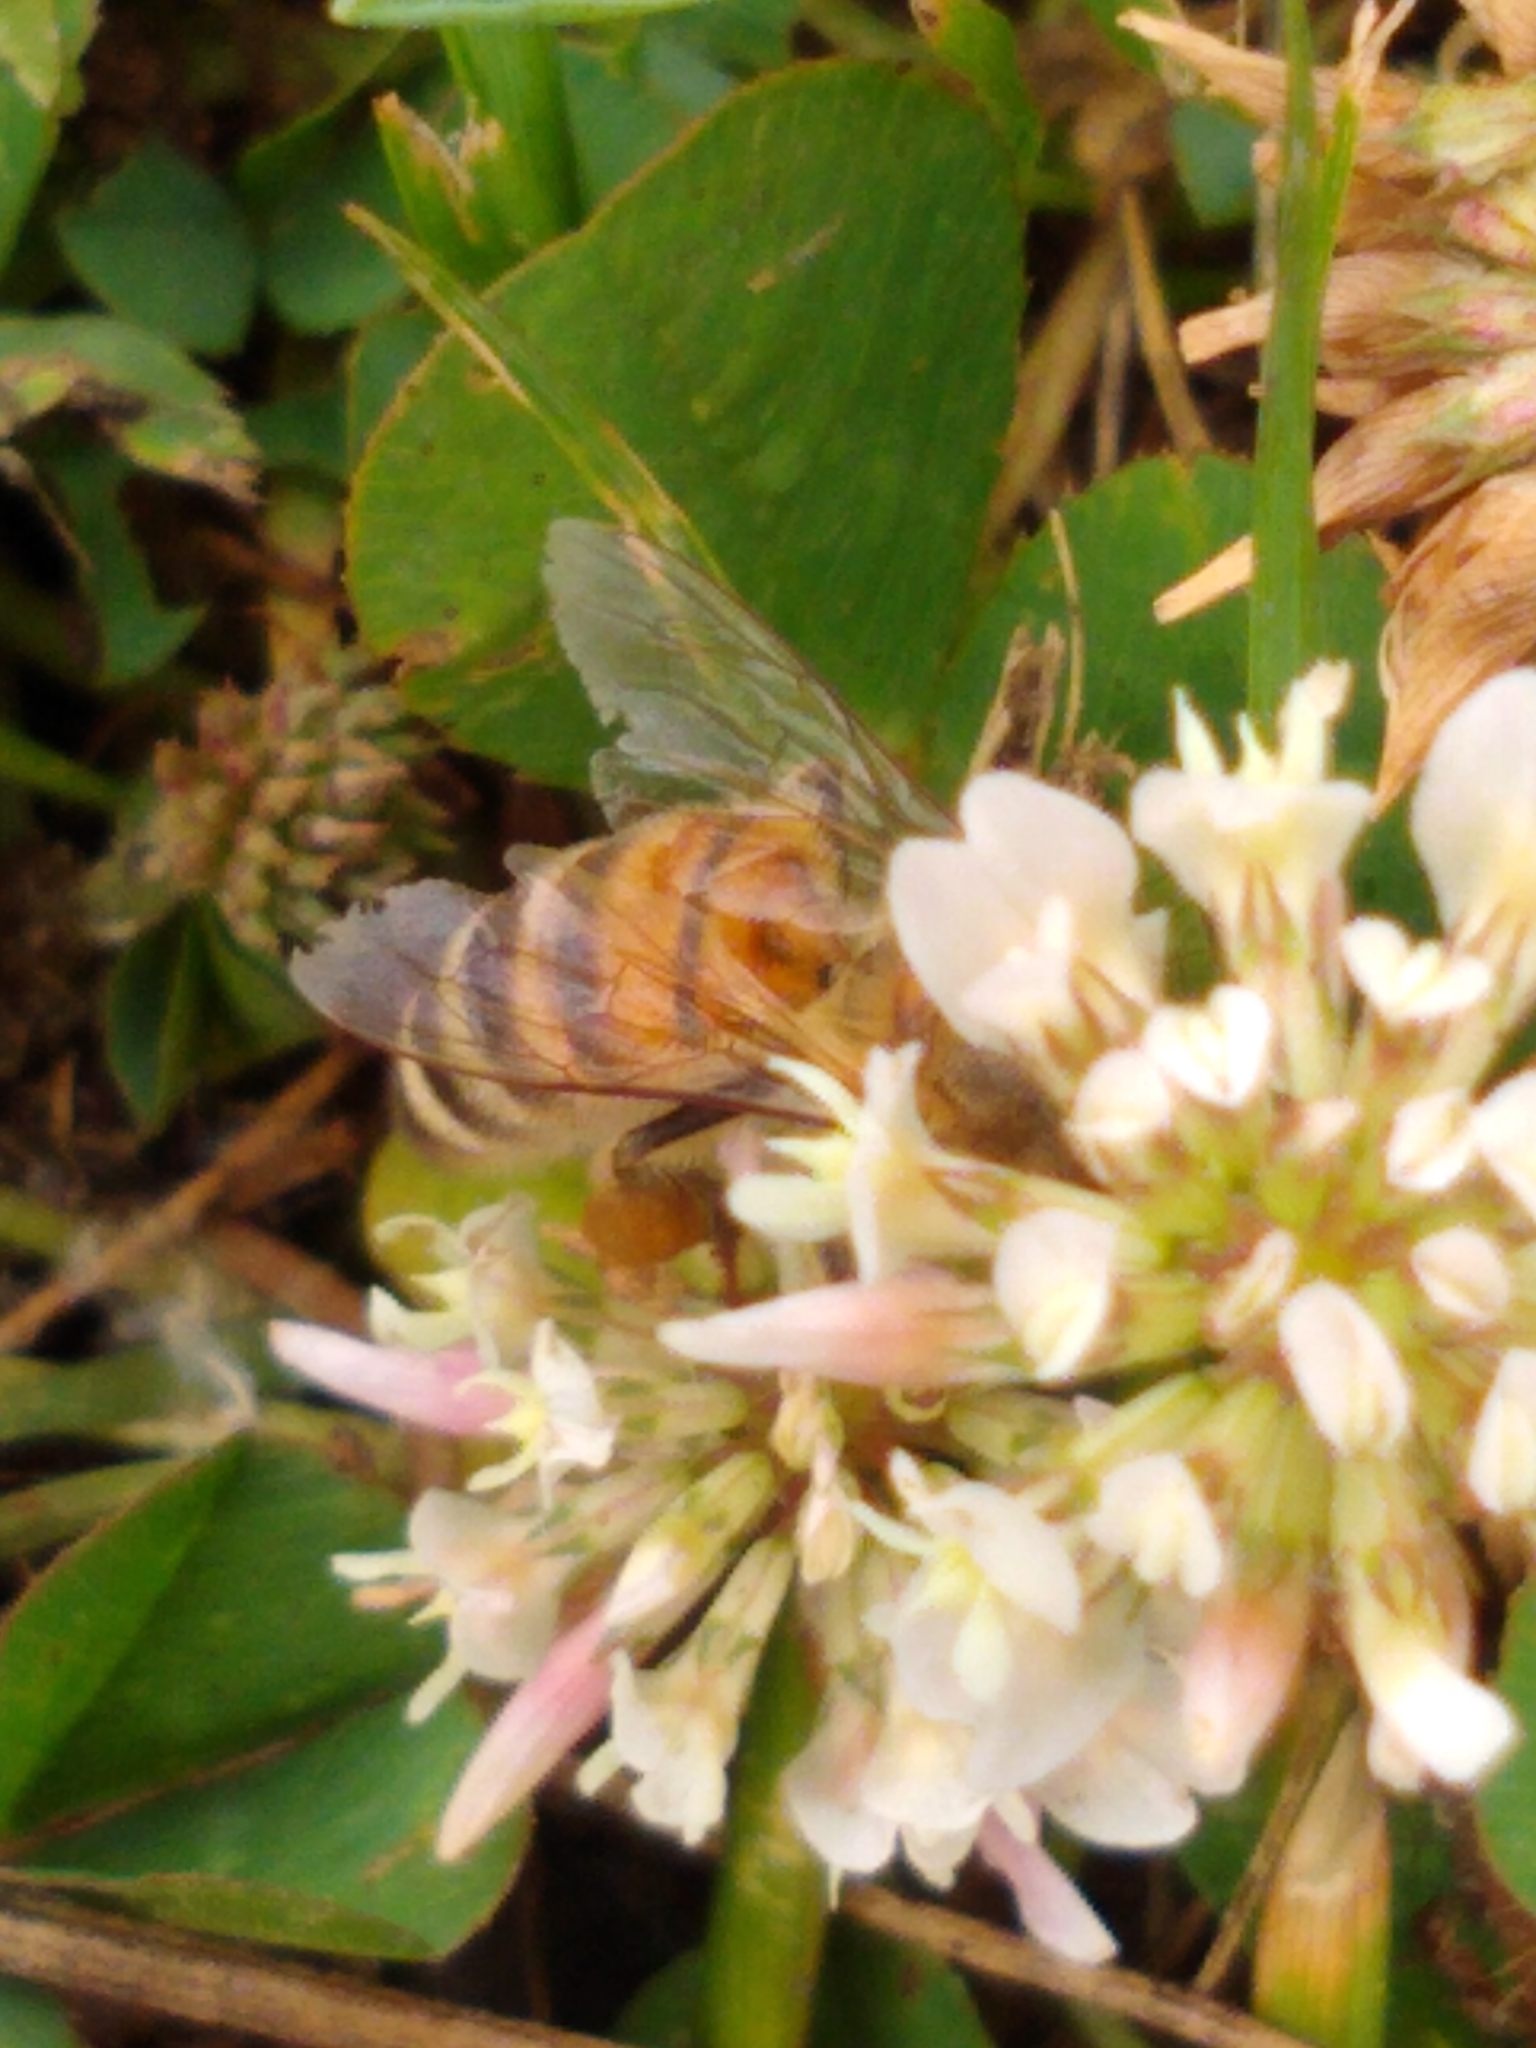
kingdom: Animalia
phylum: Arthropoda
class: Insecta
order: Hymenoptera
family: Apidae
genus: Apis
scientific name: Apis mellifera
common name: Honey bee
